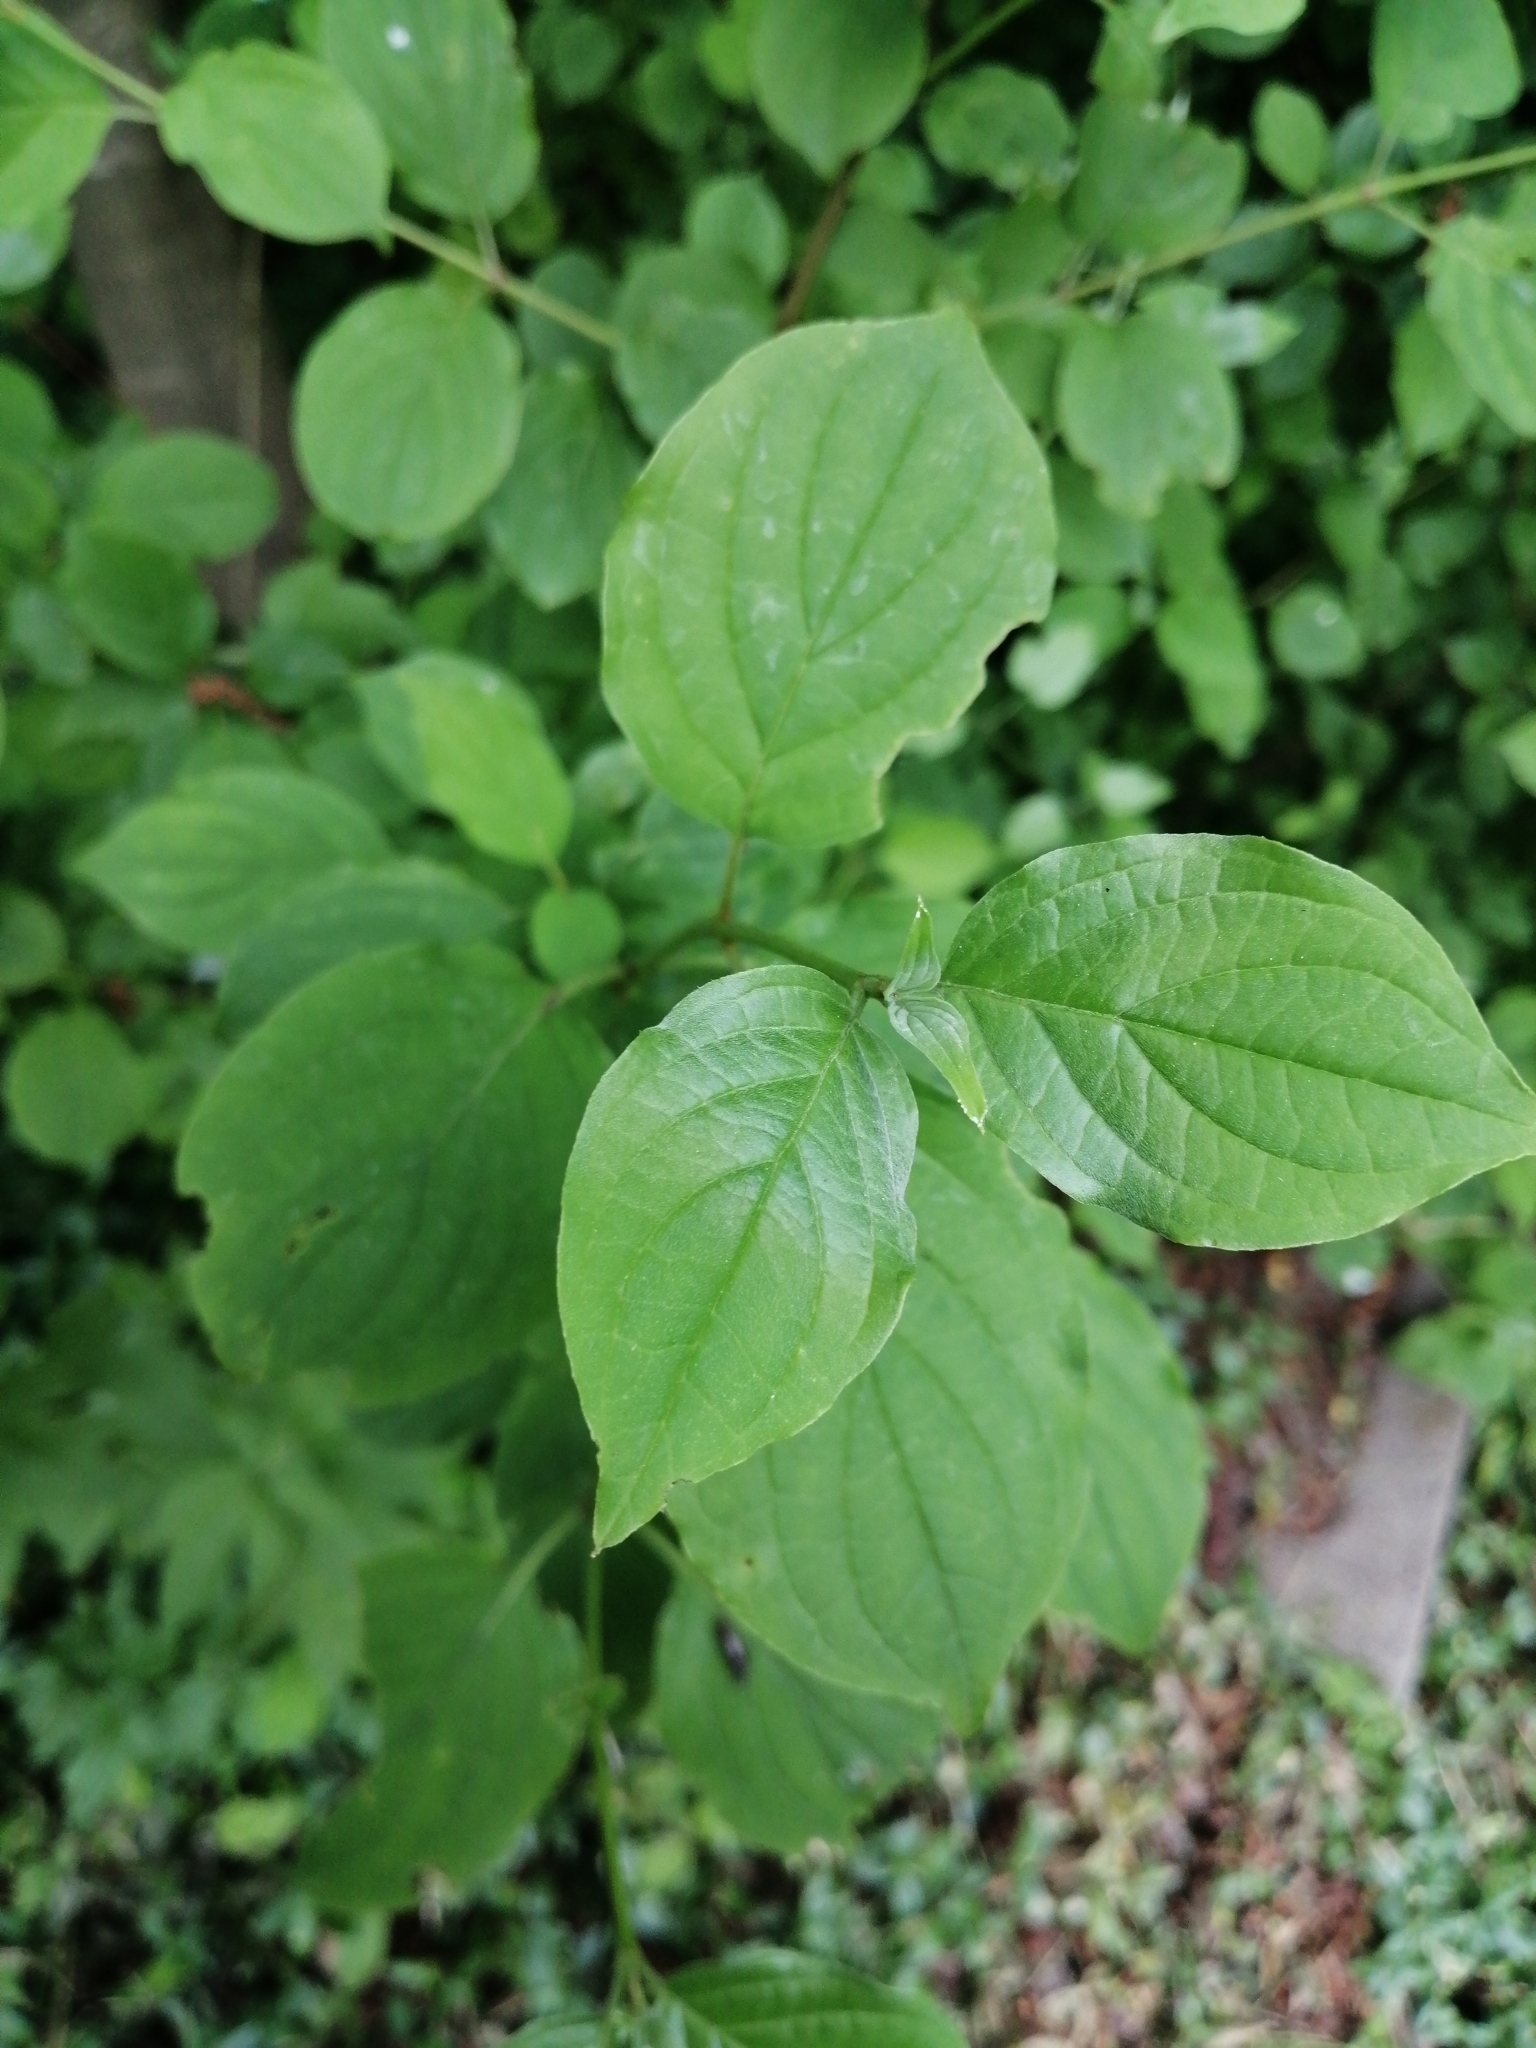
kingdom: Plantae
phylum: Tracheophyta
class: Magnoliopsida
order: Cornales
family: Cornaceae
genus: Cornus
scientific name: Cornus sanguinea
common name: Dogwood
